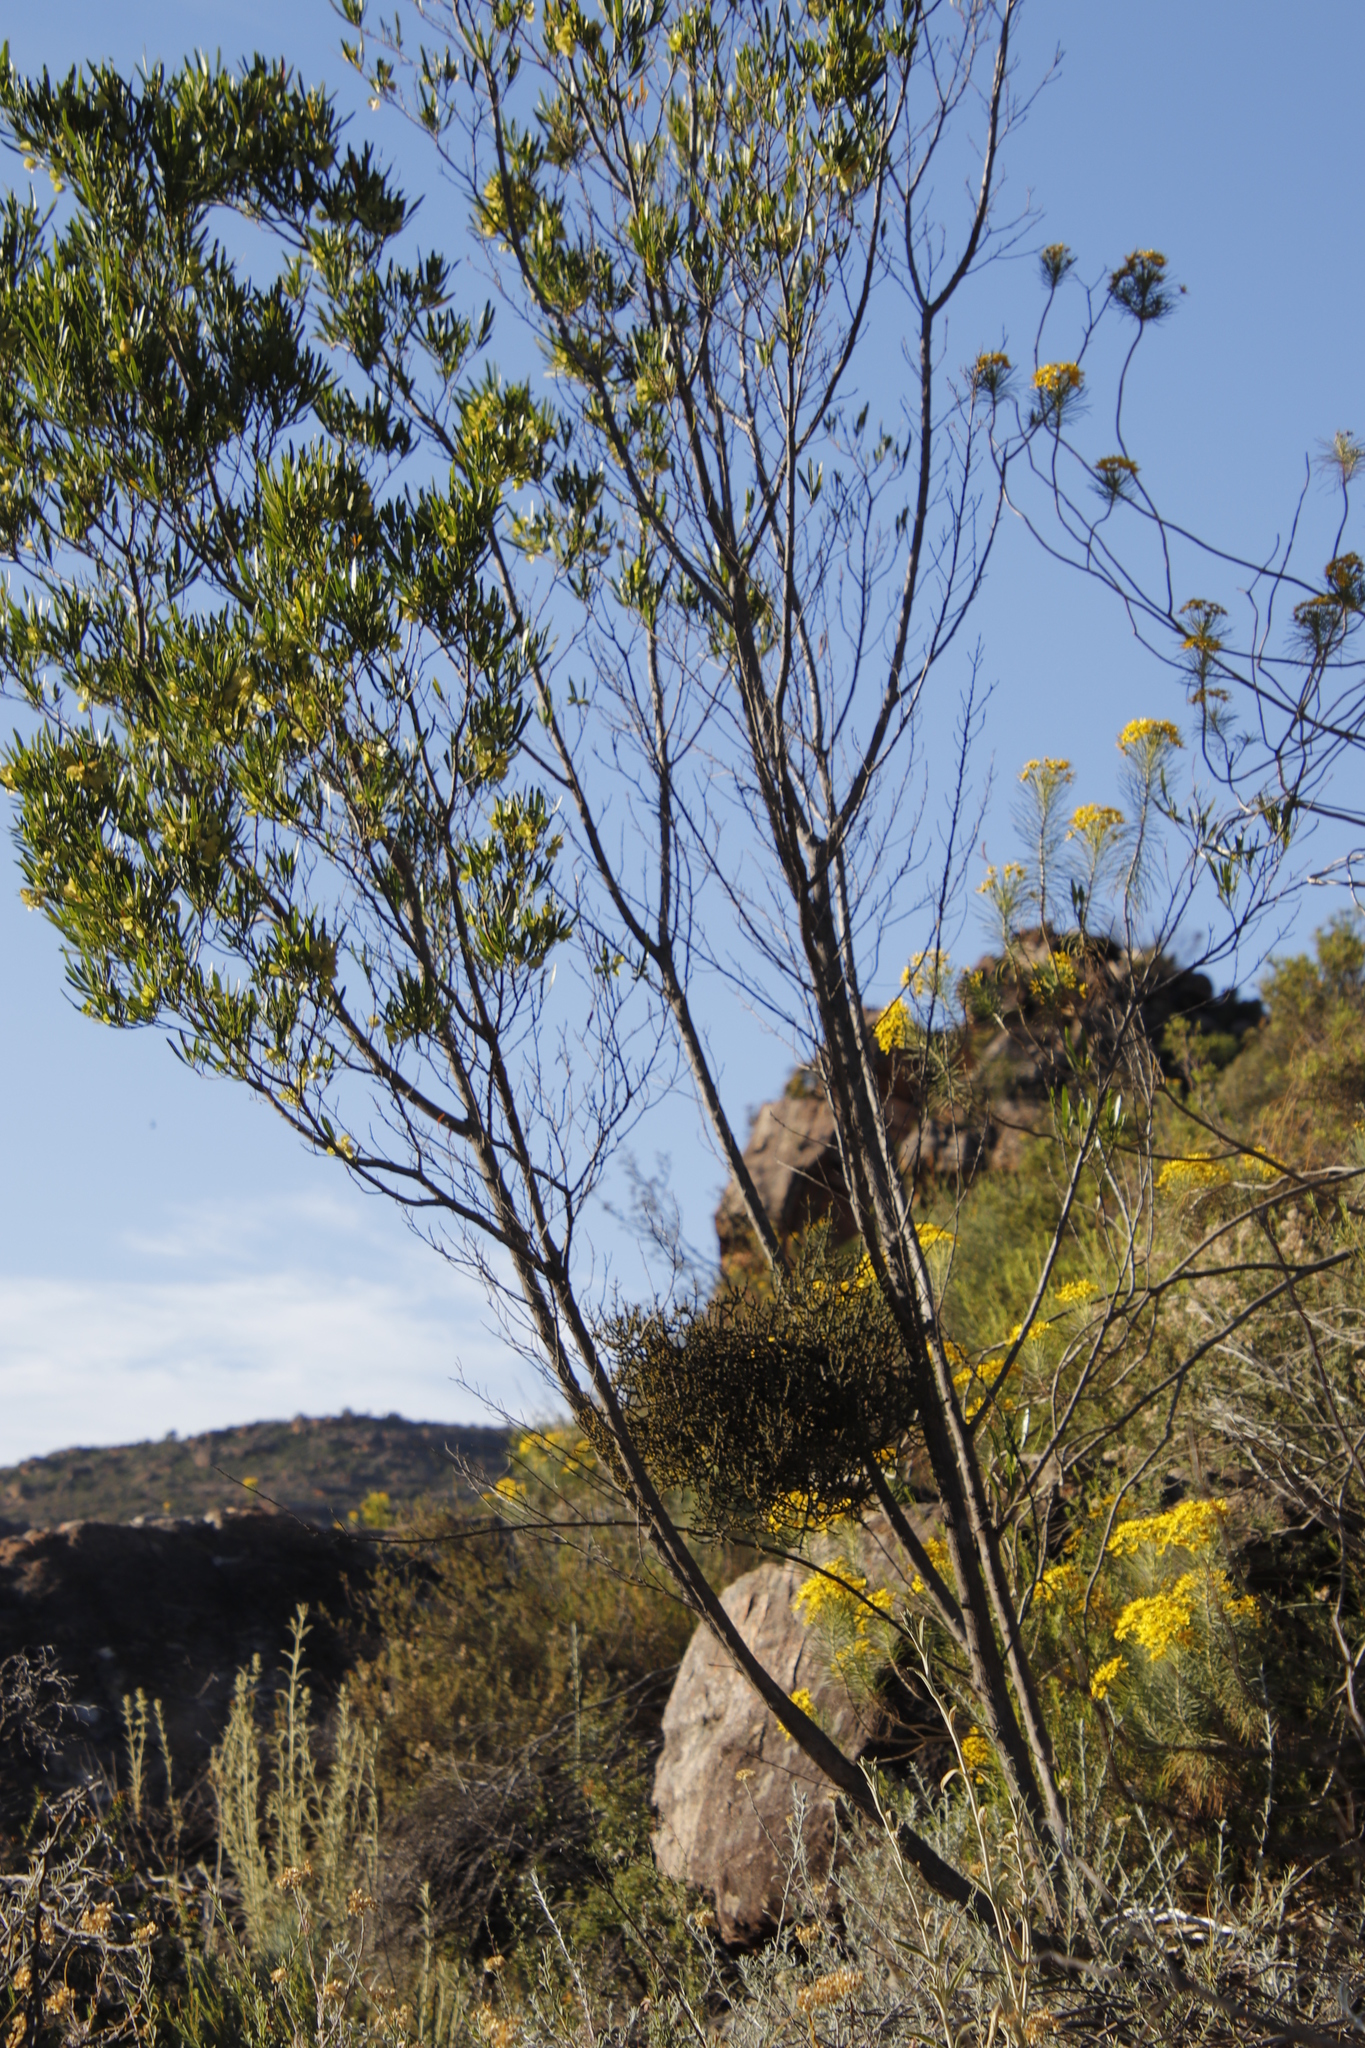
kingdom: Plantae
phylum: Tracheophyta
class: Magnoliopsida
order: Sapindales
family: Sapindaceae
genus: Dodonaea
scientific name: Dodonaea viscosa
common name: Hopbush
